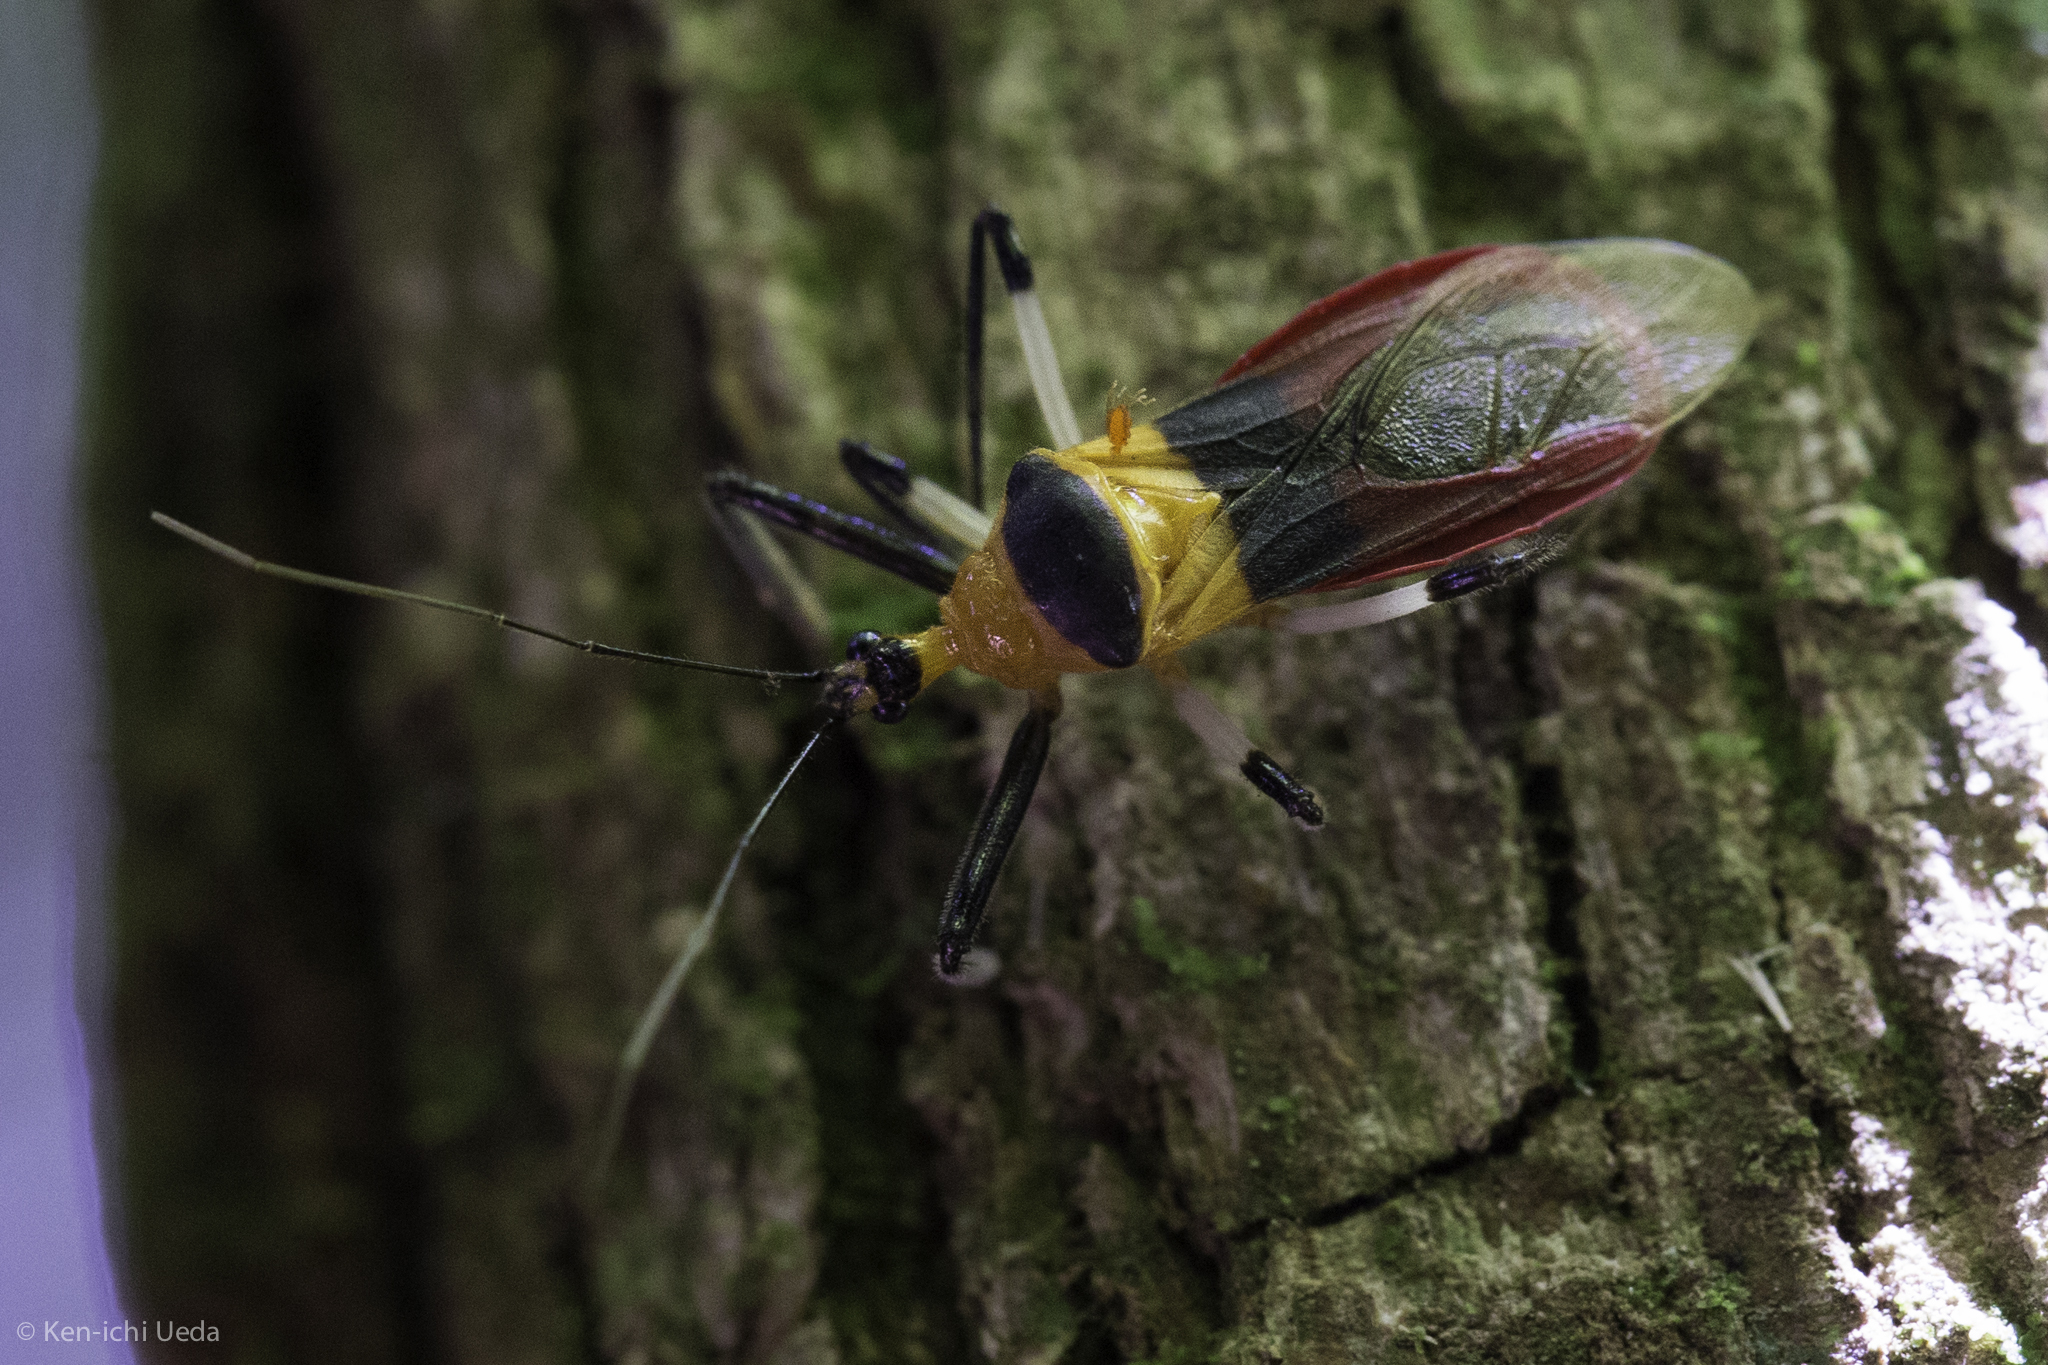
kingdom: Animalia
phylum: Arthropoda
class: Insecta
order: Hemiptera
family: Reduviidae
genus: Castolus
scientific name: Castolus tricolor
